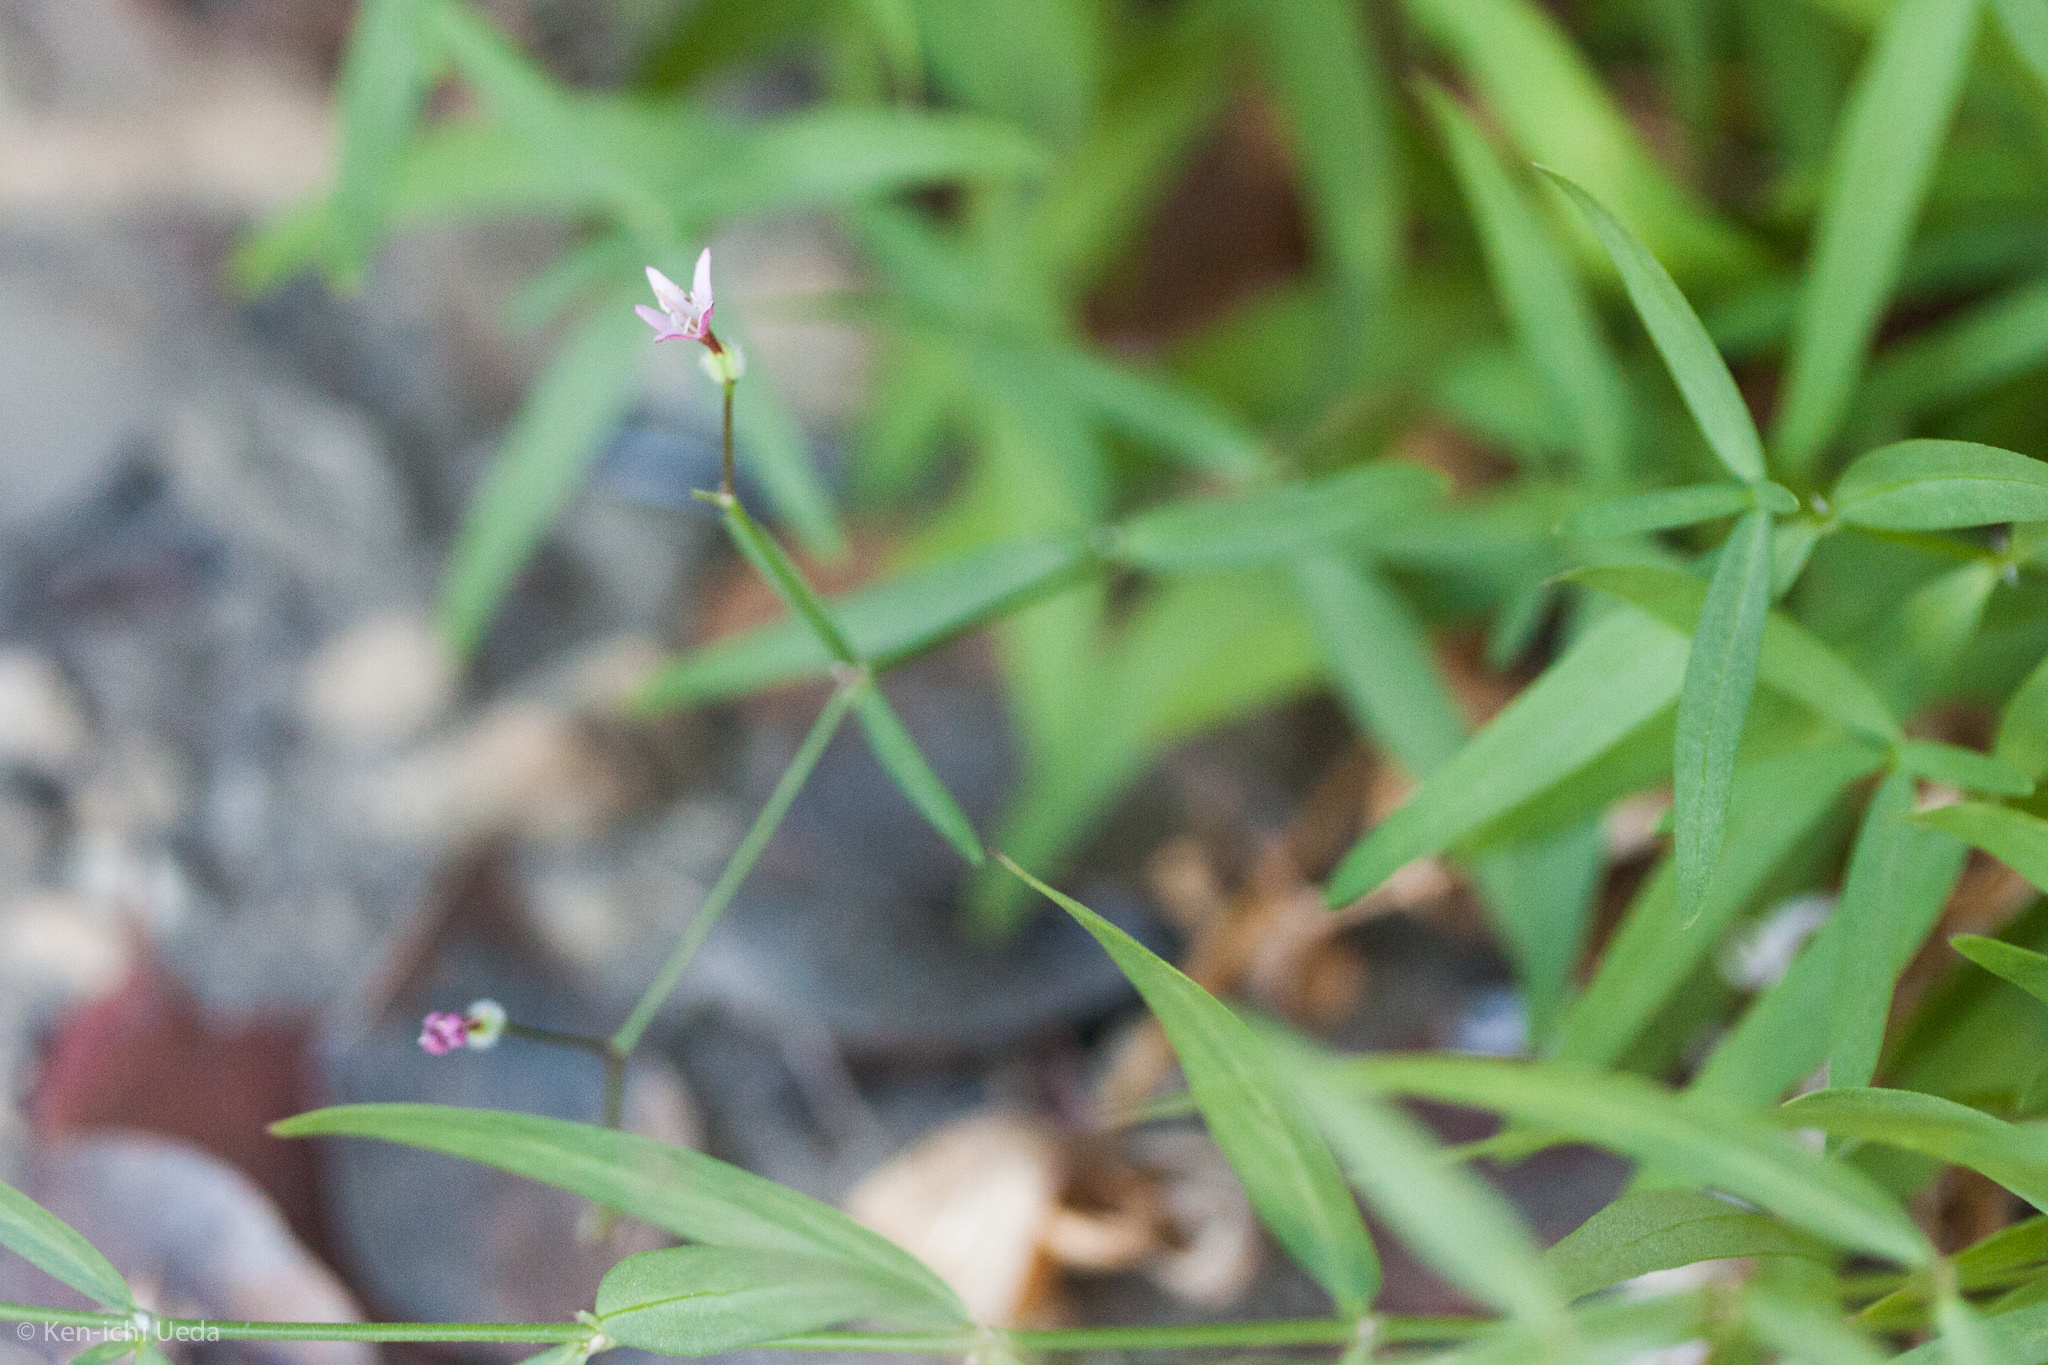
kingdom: Plantae
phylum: Tracheophyta
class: Magnoliopsida
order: Gentianales
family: Rubiaceae
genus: Kelloggia
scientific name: Kelloggia galioides
